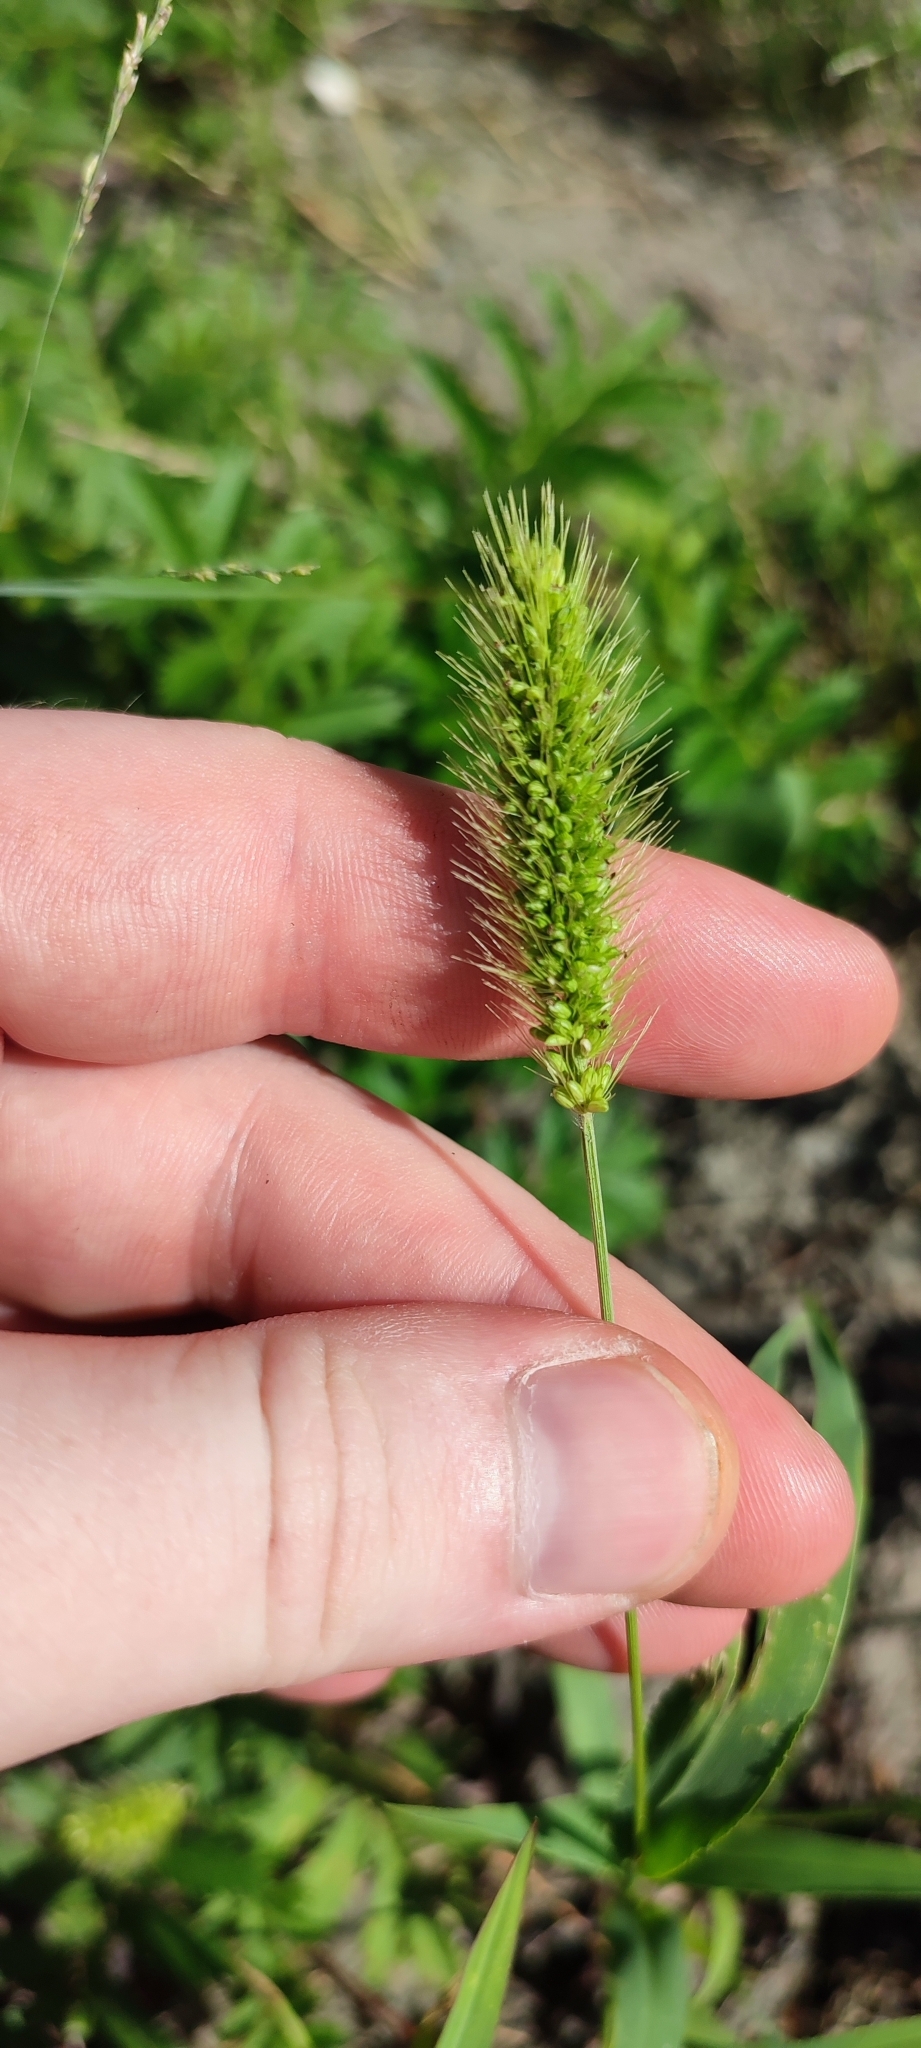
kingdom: Plantae
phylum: Tracheophyta
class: Liliopsida
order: Poales
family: Poaceae
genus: Setaria
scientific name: Setaria viridis
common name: Green bristlegrass
